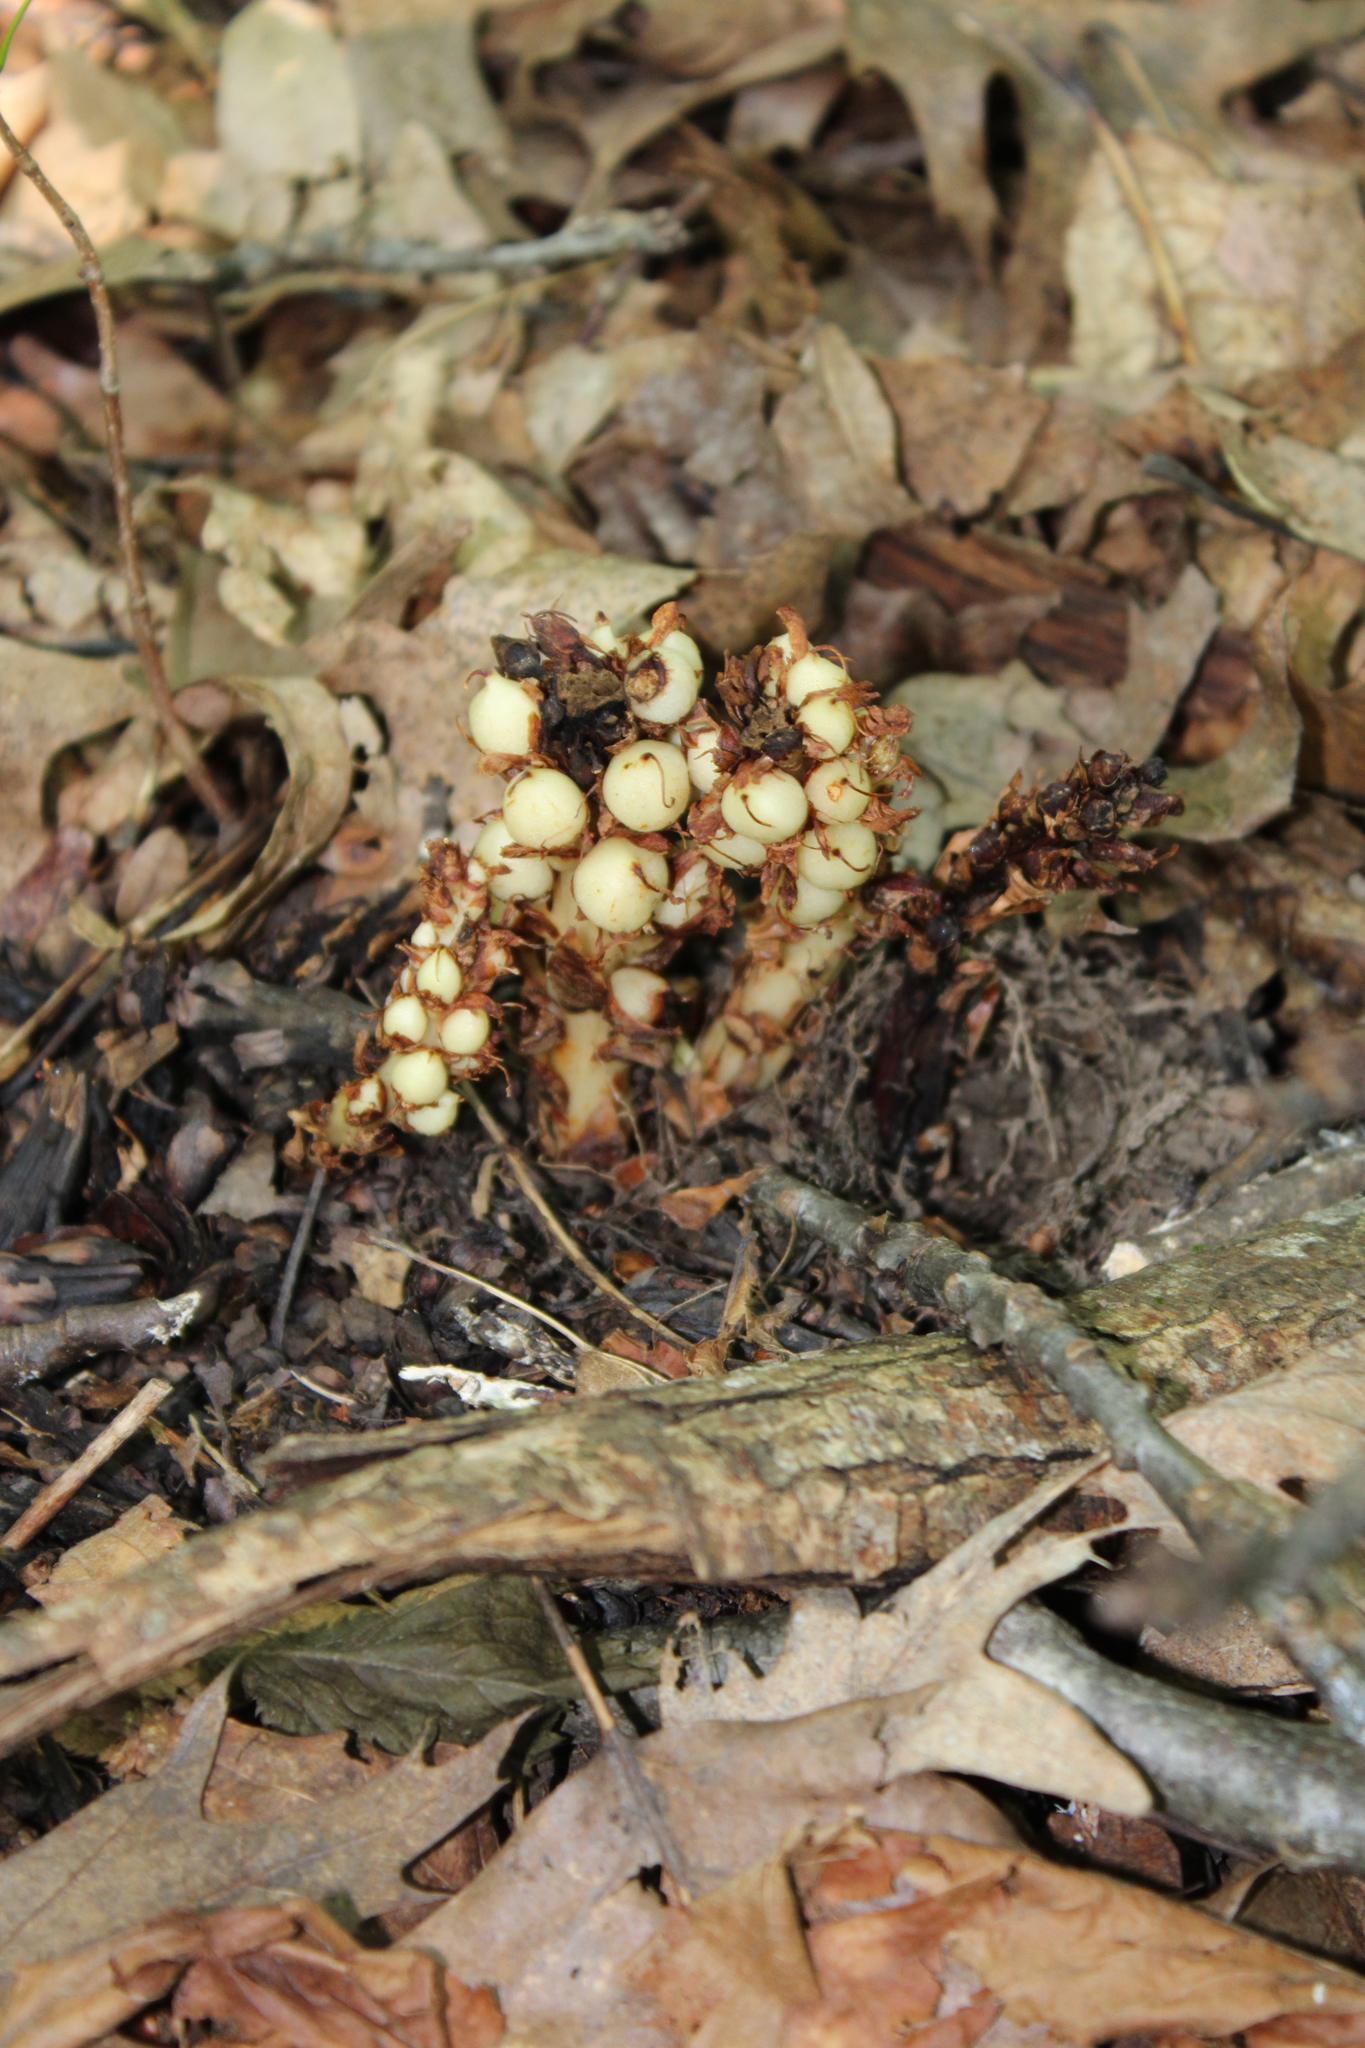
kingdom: Plantae
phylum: Tracheophyta
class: Magnoliopsida
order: Lamiales
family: Orobanchaceae
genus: Conopholis
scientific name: Conopholis americana
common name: American cancer-root
